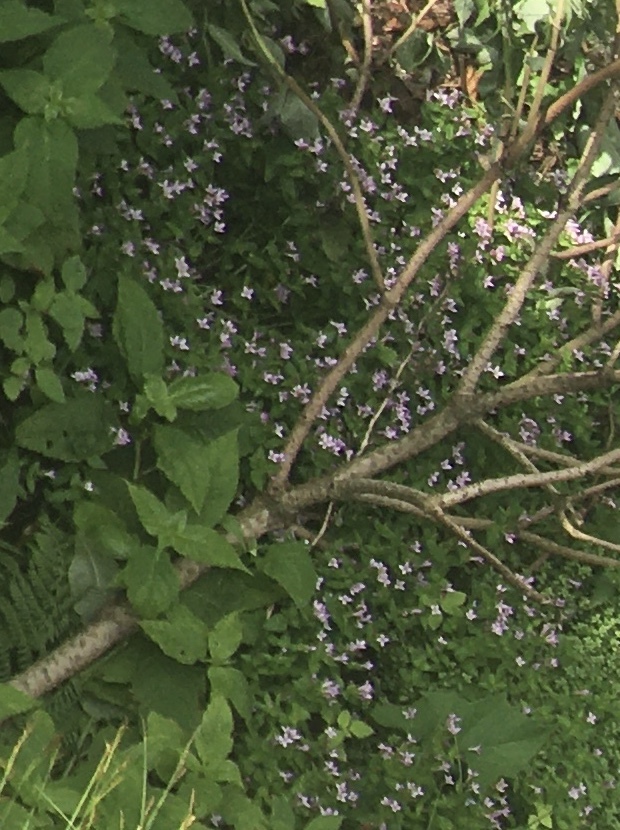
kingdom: Plantae
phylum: Tracheophyta
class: Magnoliopsida
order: Gentianales
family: Rubiaceae
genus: Houstonia
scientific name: Houstonia purpurea
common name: Summer bluet
